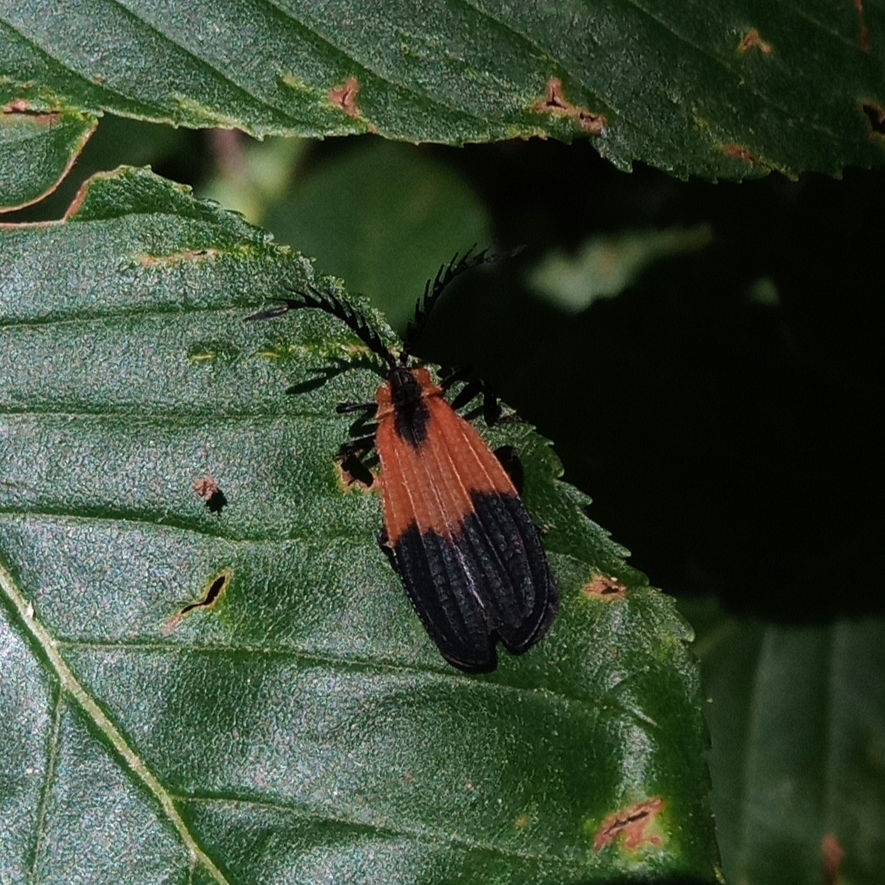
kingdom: Animalia
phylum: Arthropoda
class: Insecta
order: Coleoptera
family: Lycidae
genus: Caenia
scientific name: Caenia dimidiata
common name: Terminal net-winged beetle
